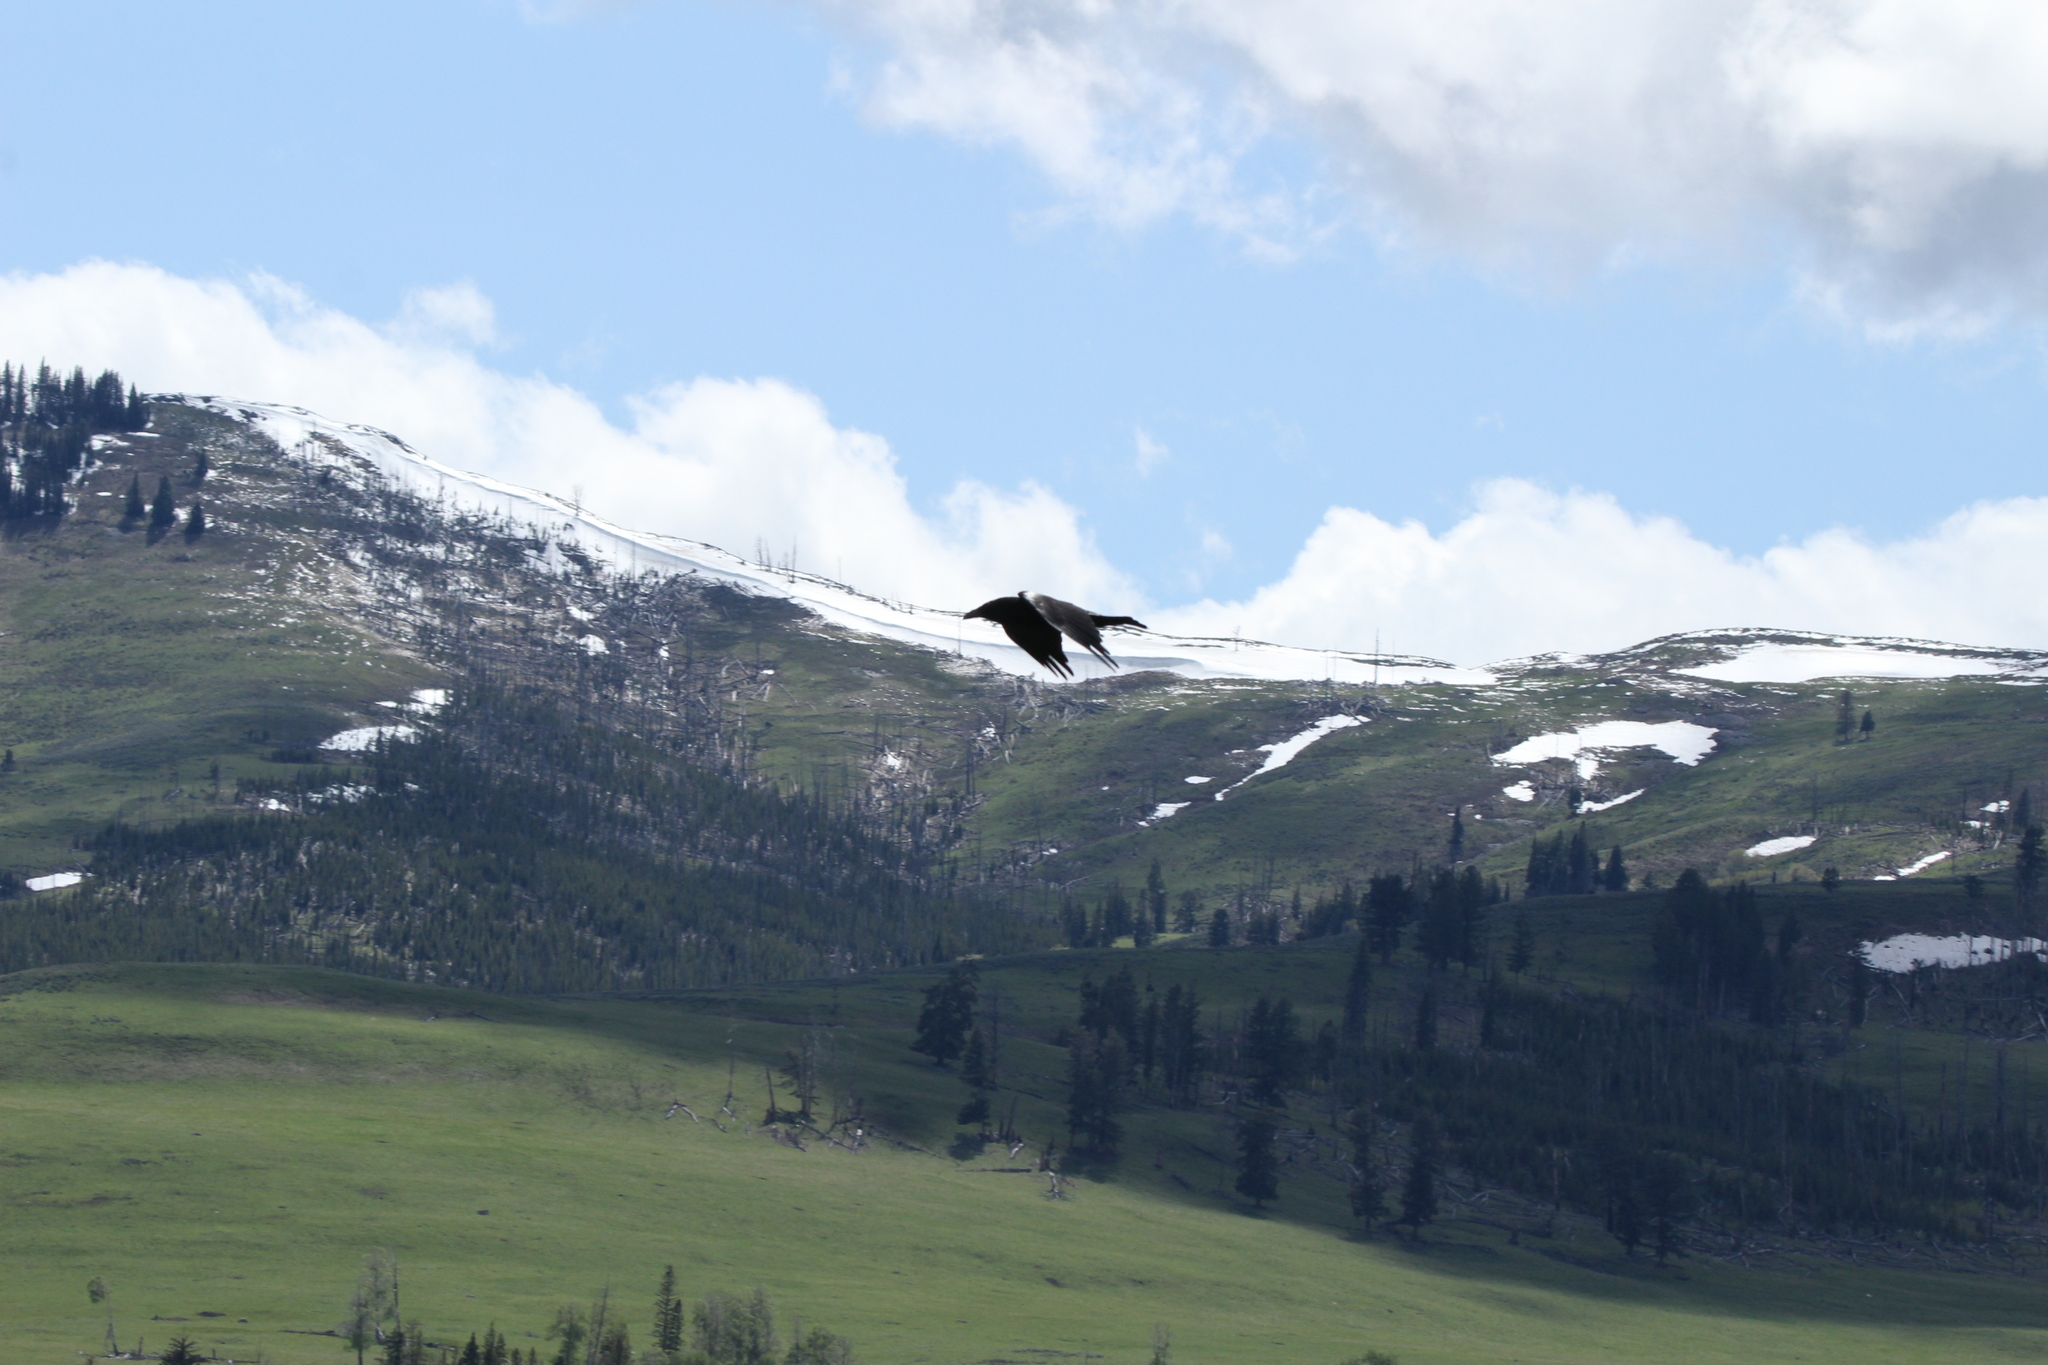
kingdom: Animalia
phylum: Chordata
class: Aves
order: Passeriformes
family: Corvidae
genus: Corvus
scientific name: Corvus corax
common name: Common raven
